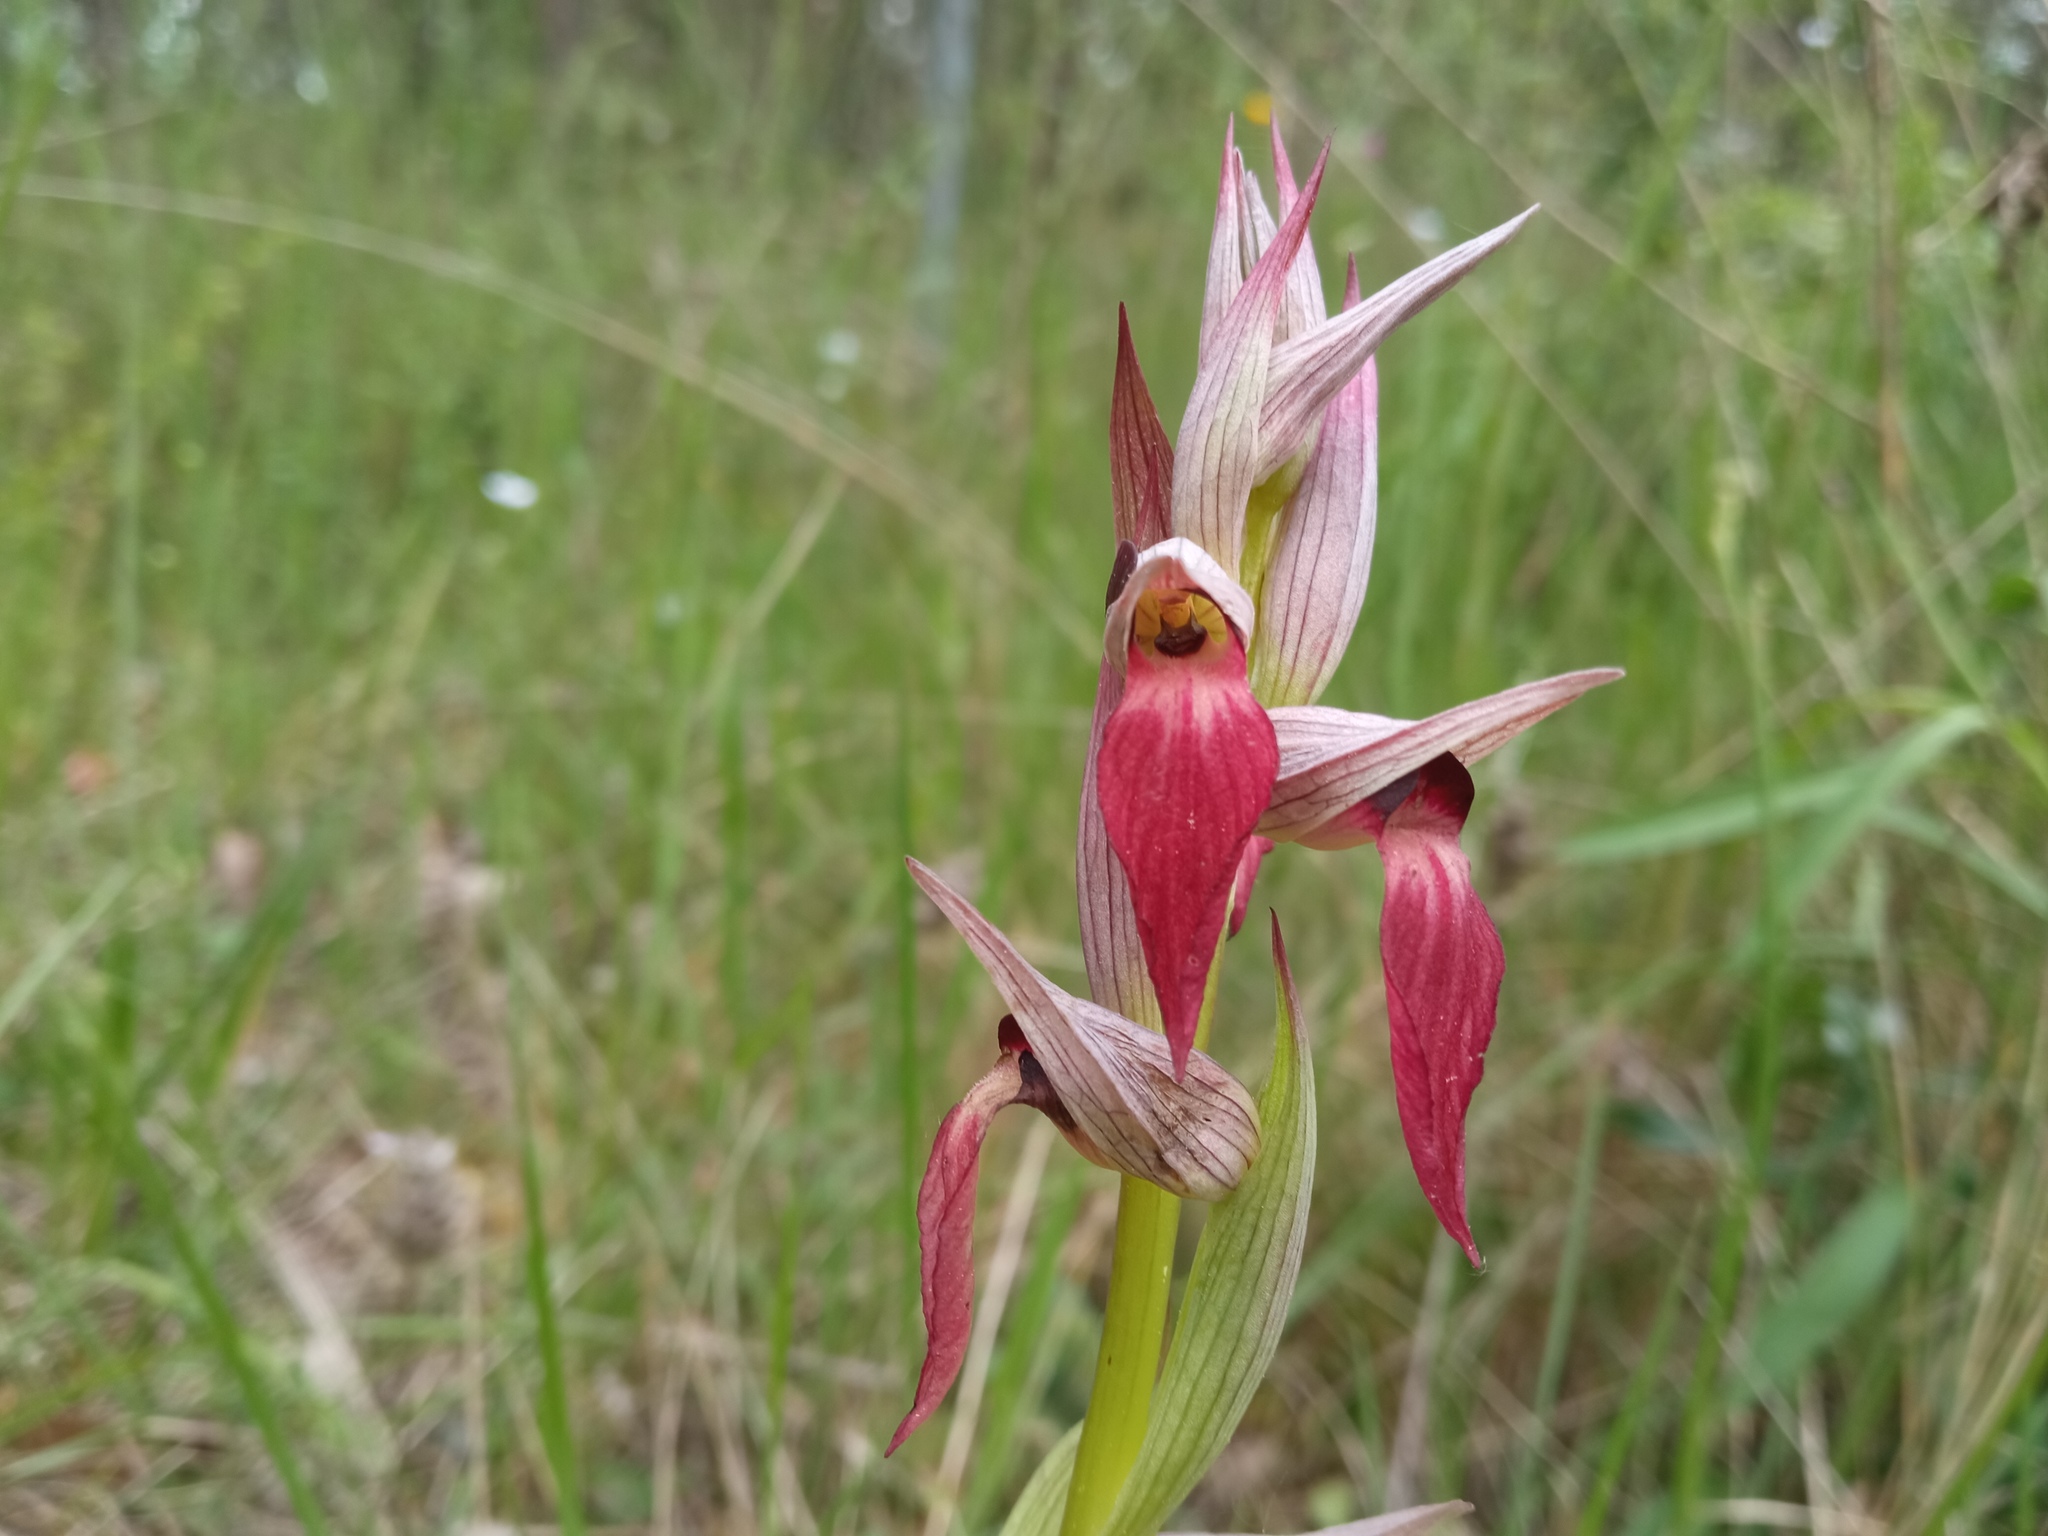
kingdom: Plantae
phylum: Tracheophyta
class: Liliopsida
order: Asparagales
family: Orchidaceae
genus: Serapias
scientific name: Serapias lingua
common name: Tongue-orchid
